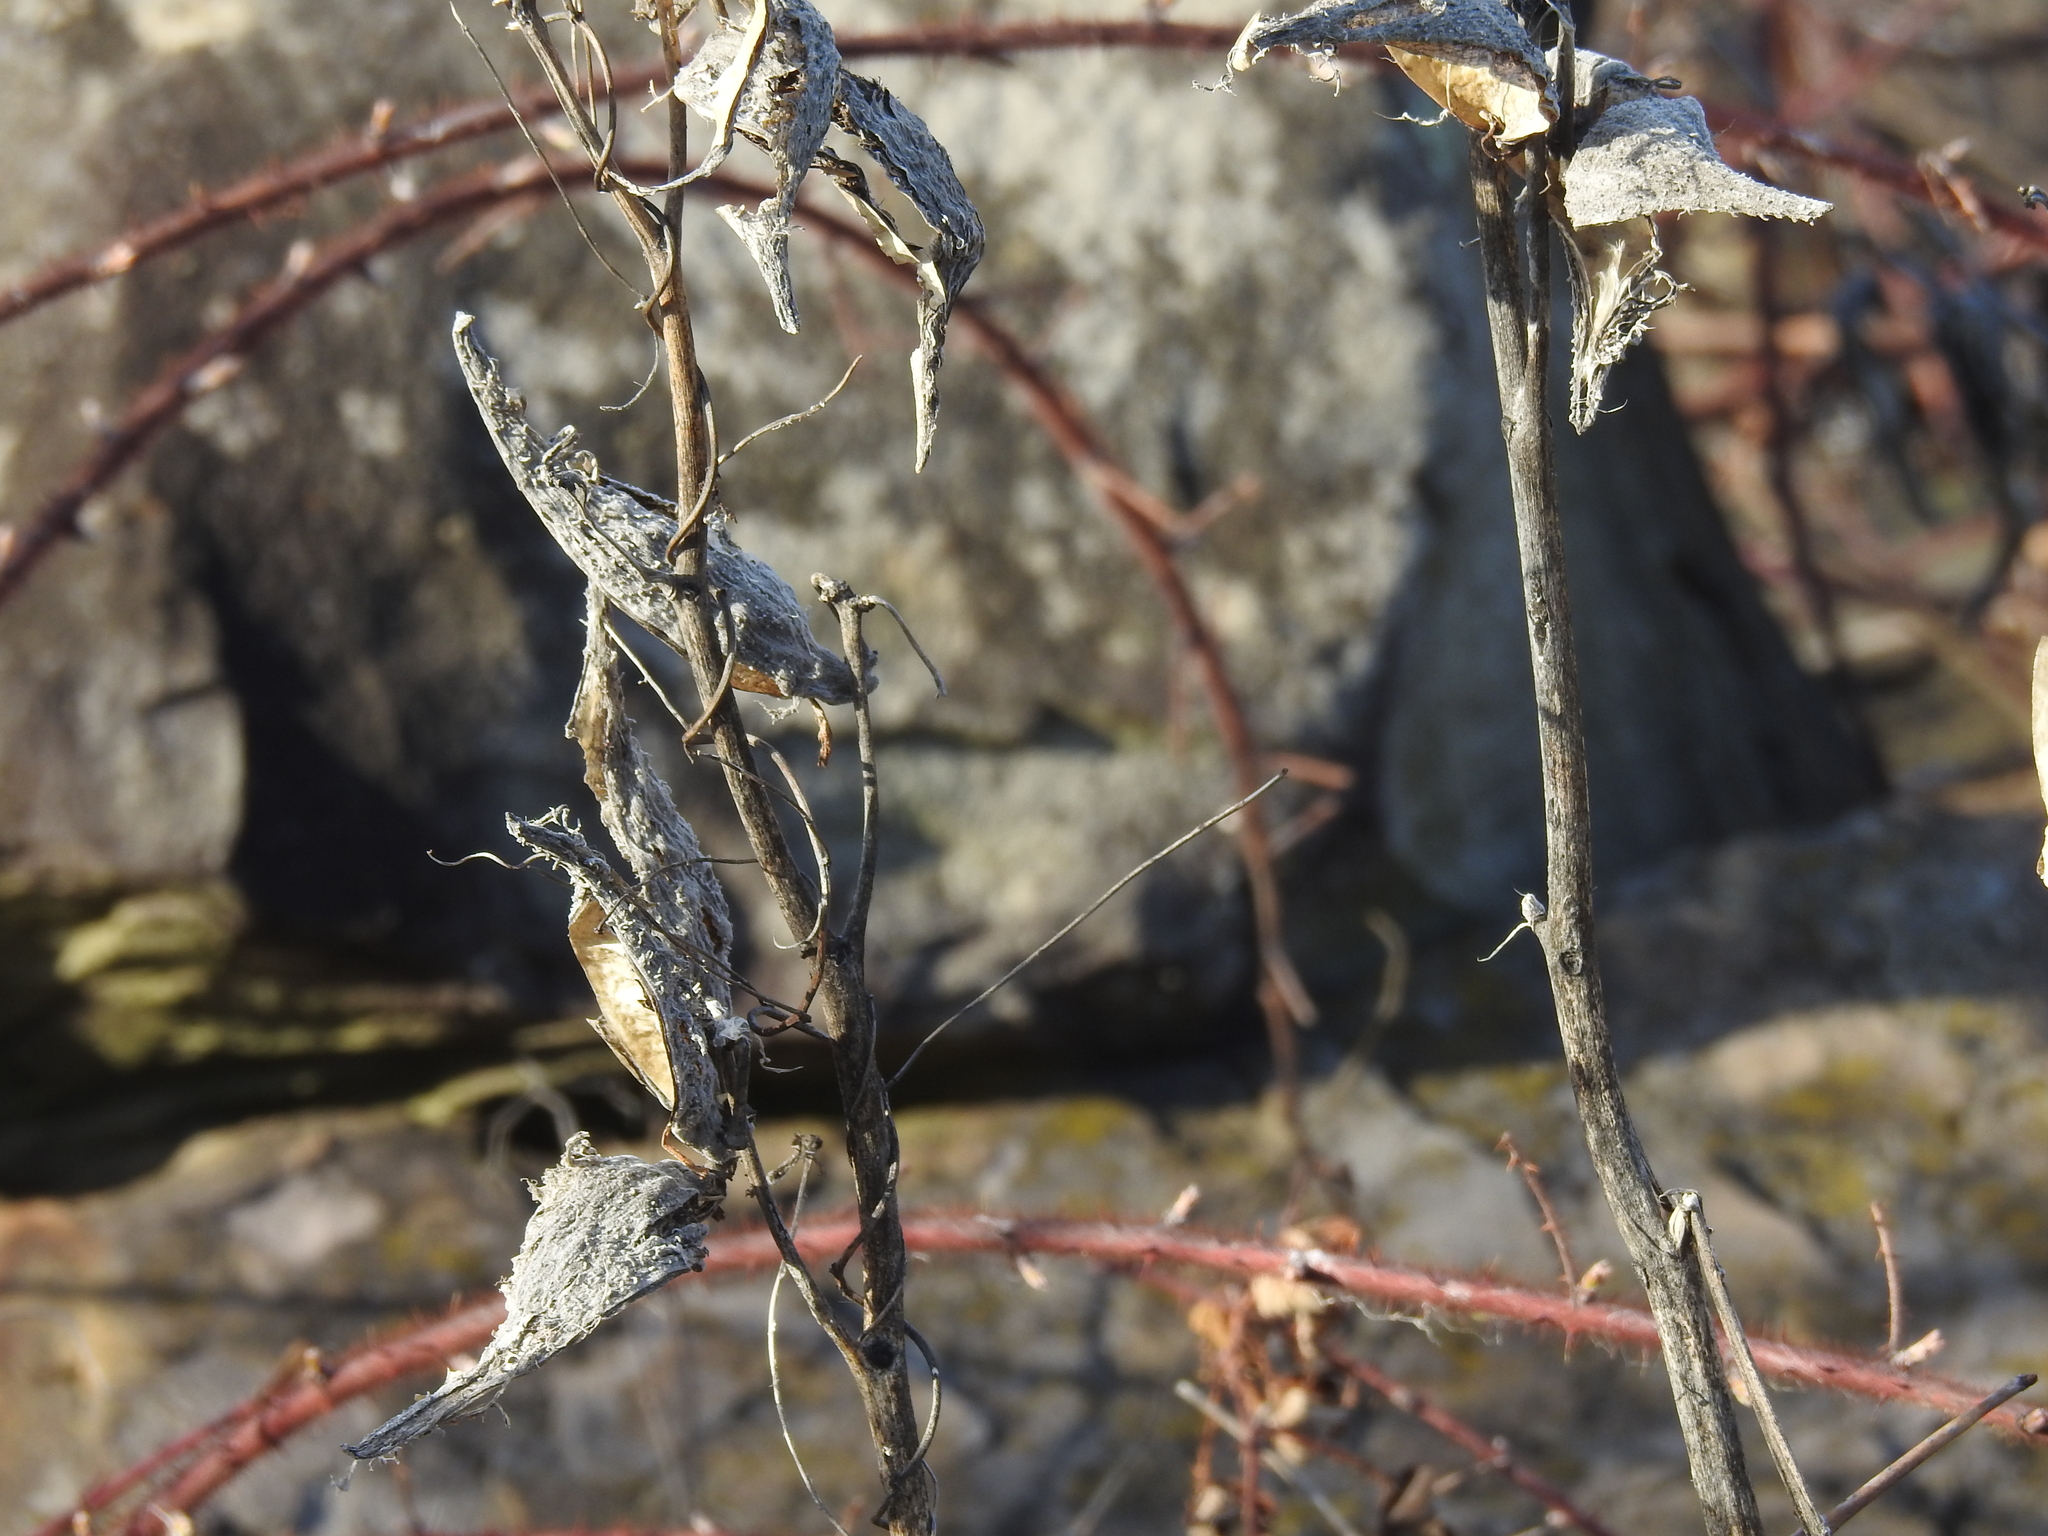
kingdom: Plantae
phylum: Tracheophyta
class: Magnoliopsida
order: Gentianales
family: Apocynaceae
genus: Asclepias
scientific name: Asclepias syriaca
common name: Common milkweed
